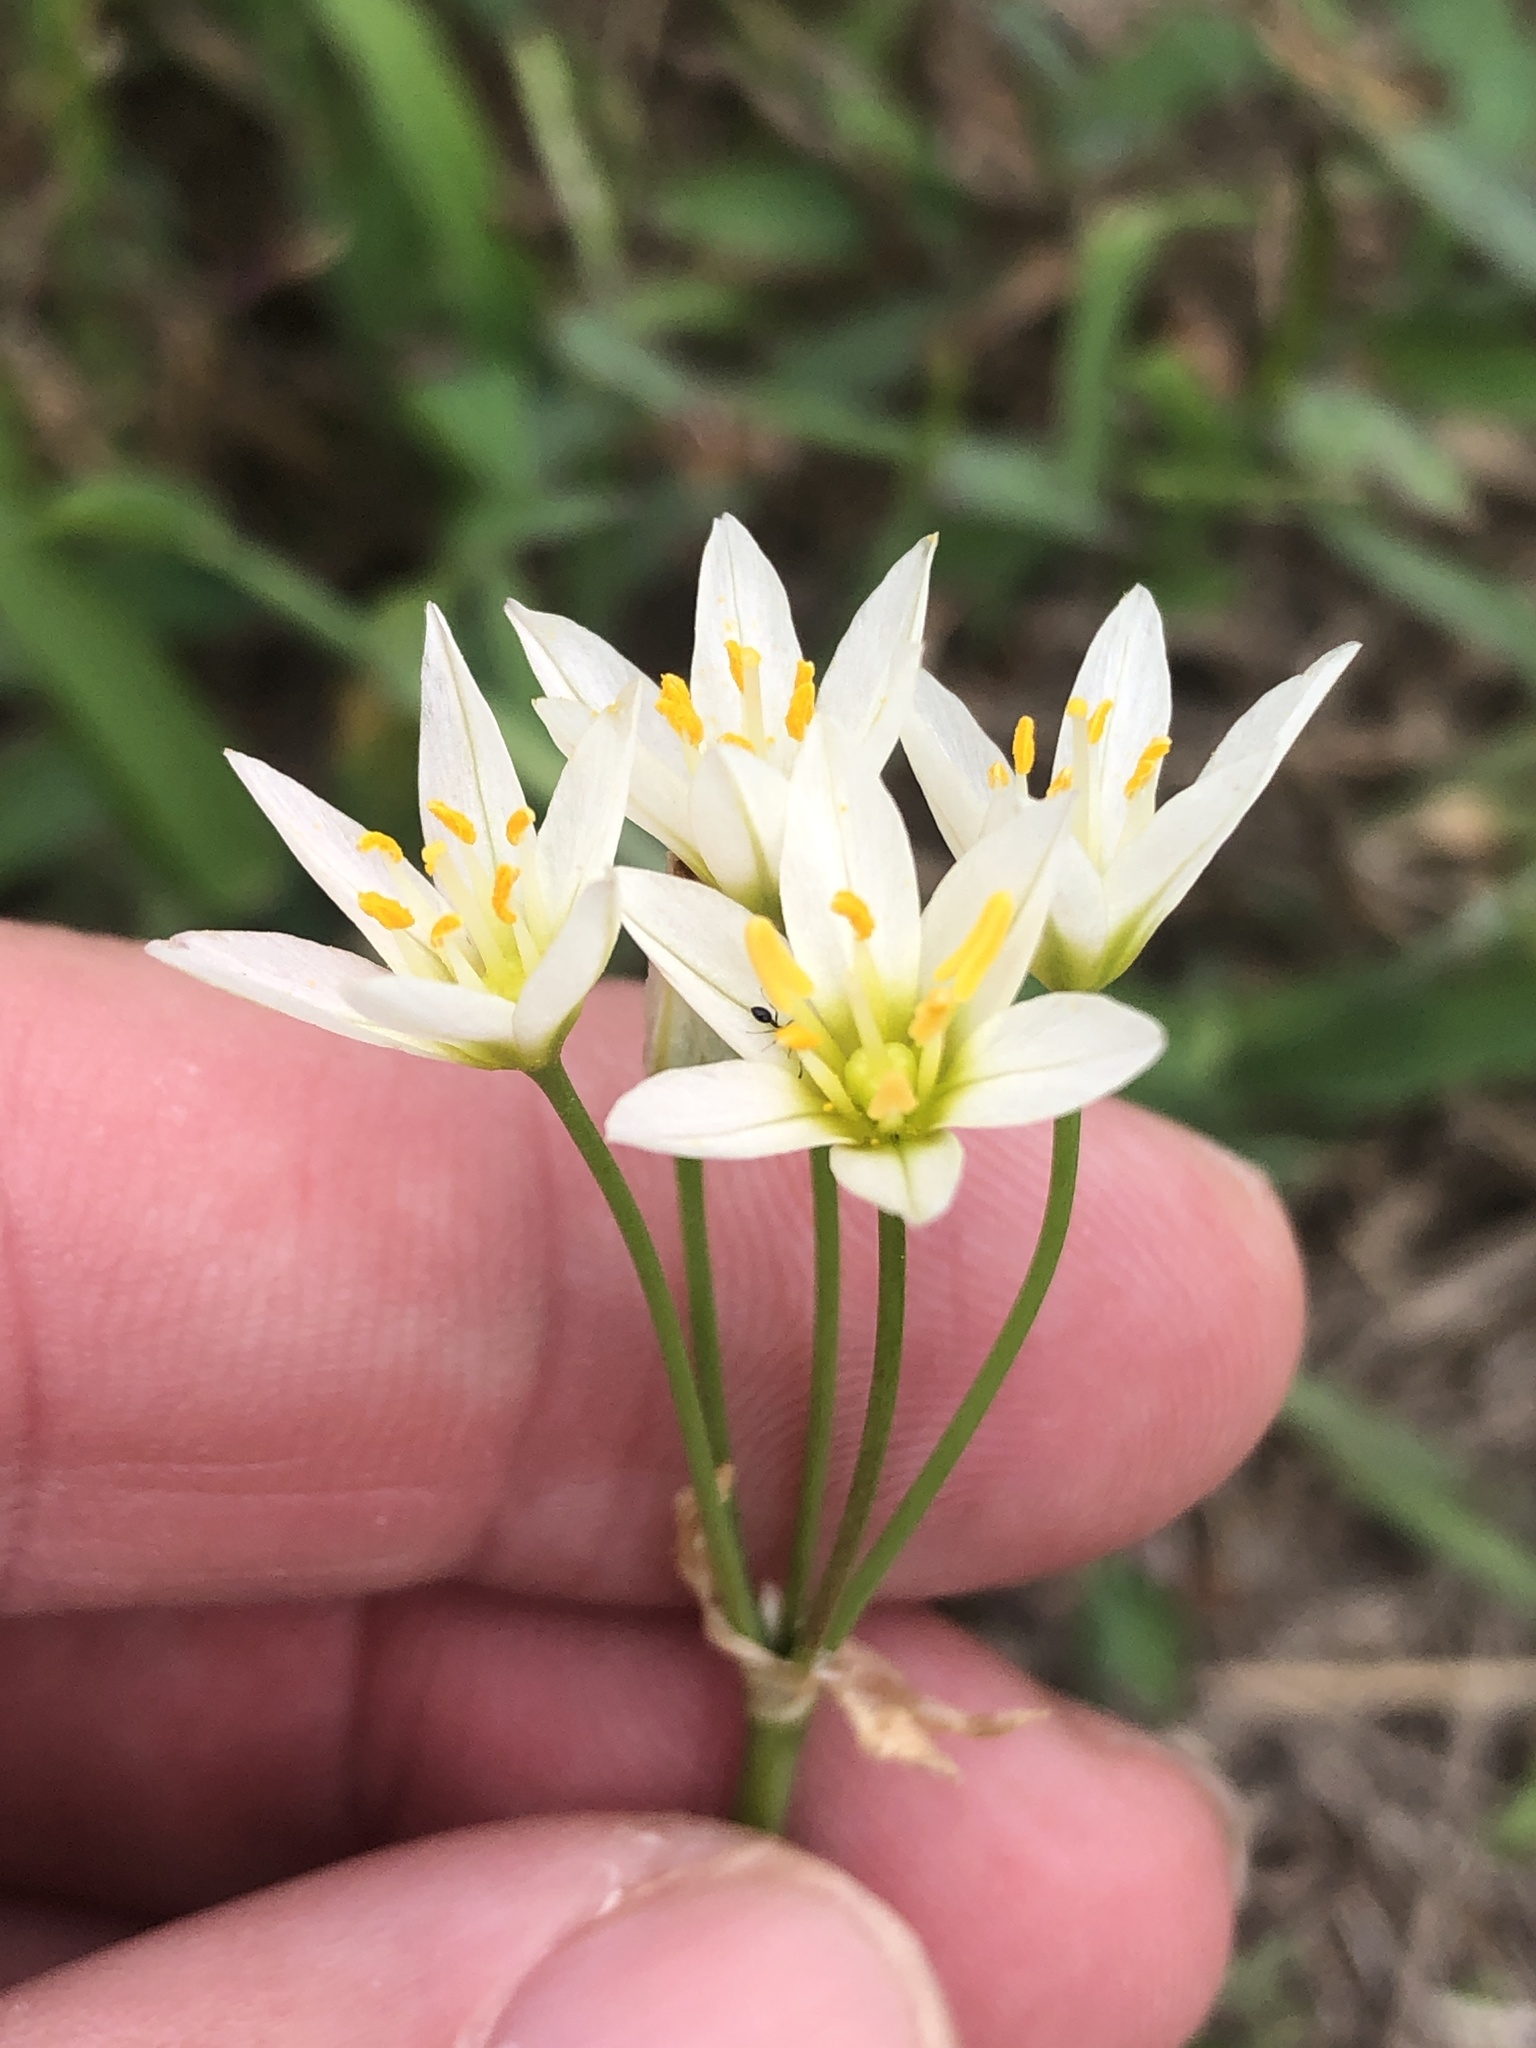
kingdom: Plantae
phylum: Tracheophyta
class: Liliopsida
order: Asparagales
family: Amaryllidaceae
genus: Nothoscordum
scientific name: Nothoscordum bivalve
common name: Crow-poison
